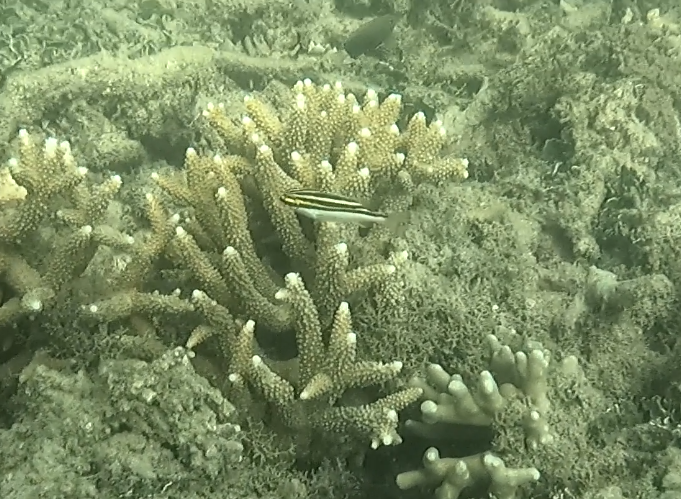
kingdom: Animalia
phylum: Chordata
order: Perciformes
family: Nemipteridae
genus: Scolopsis
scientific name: Scolopsis bilineata
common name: Two-lined monocle bream
